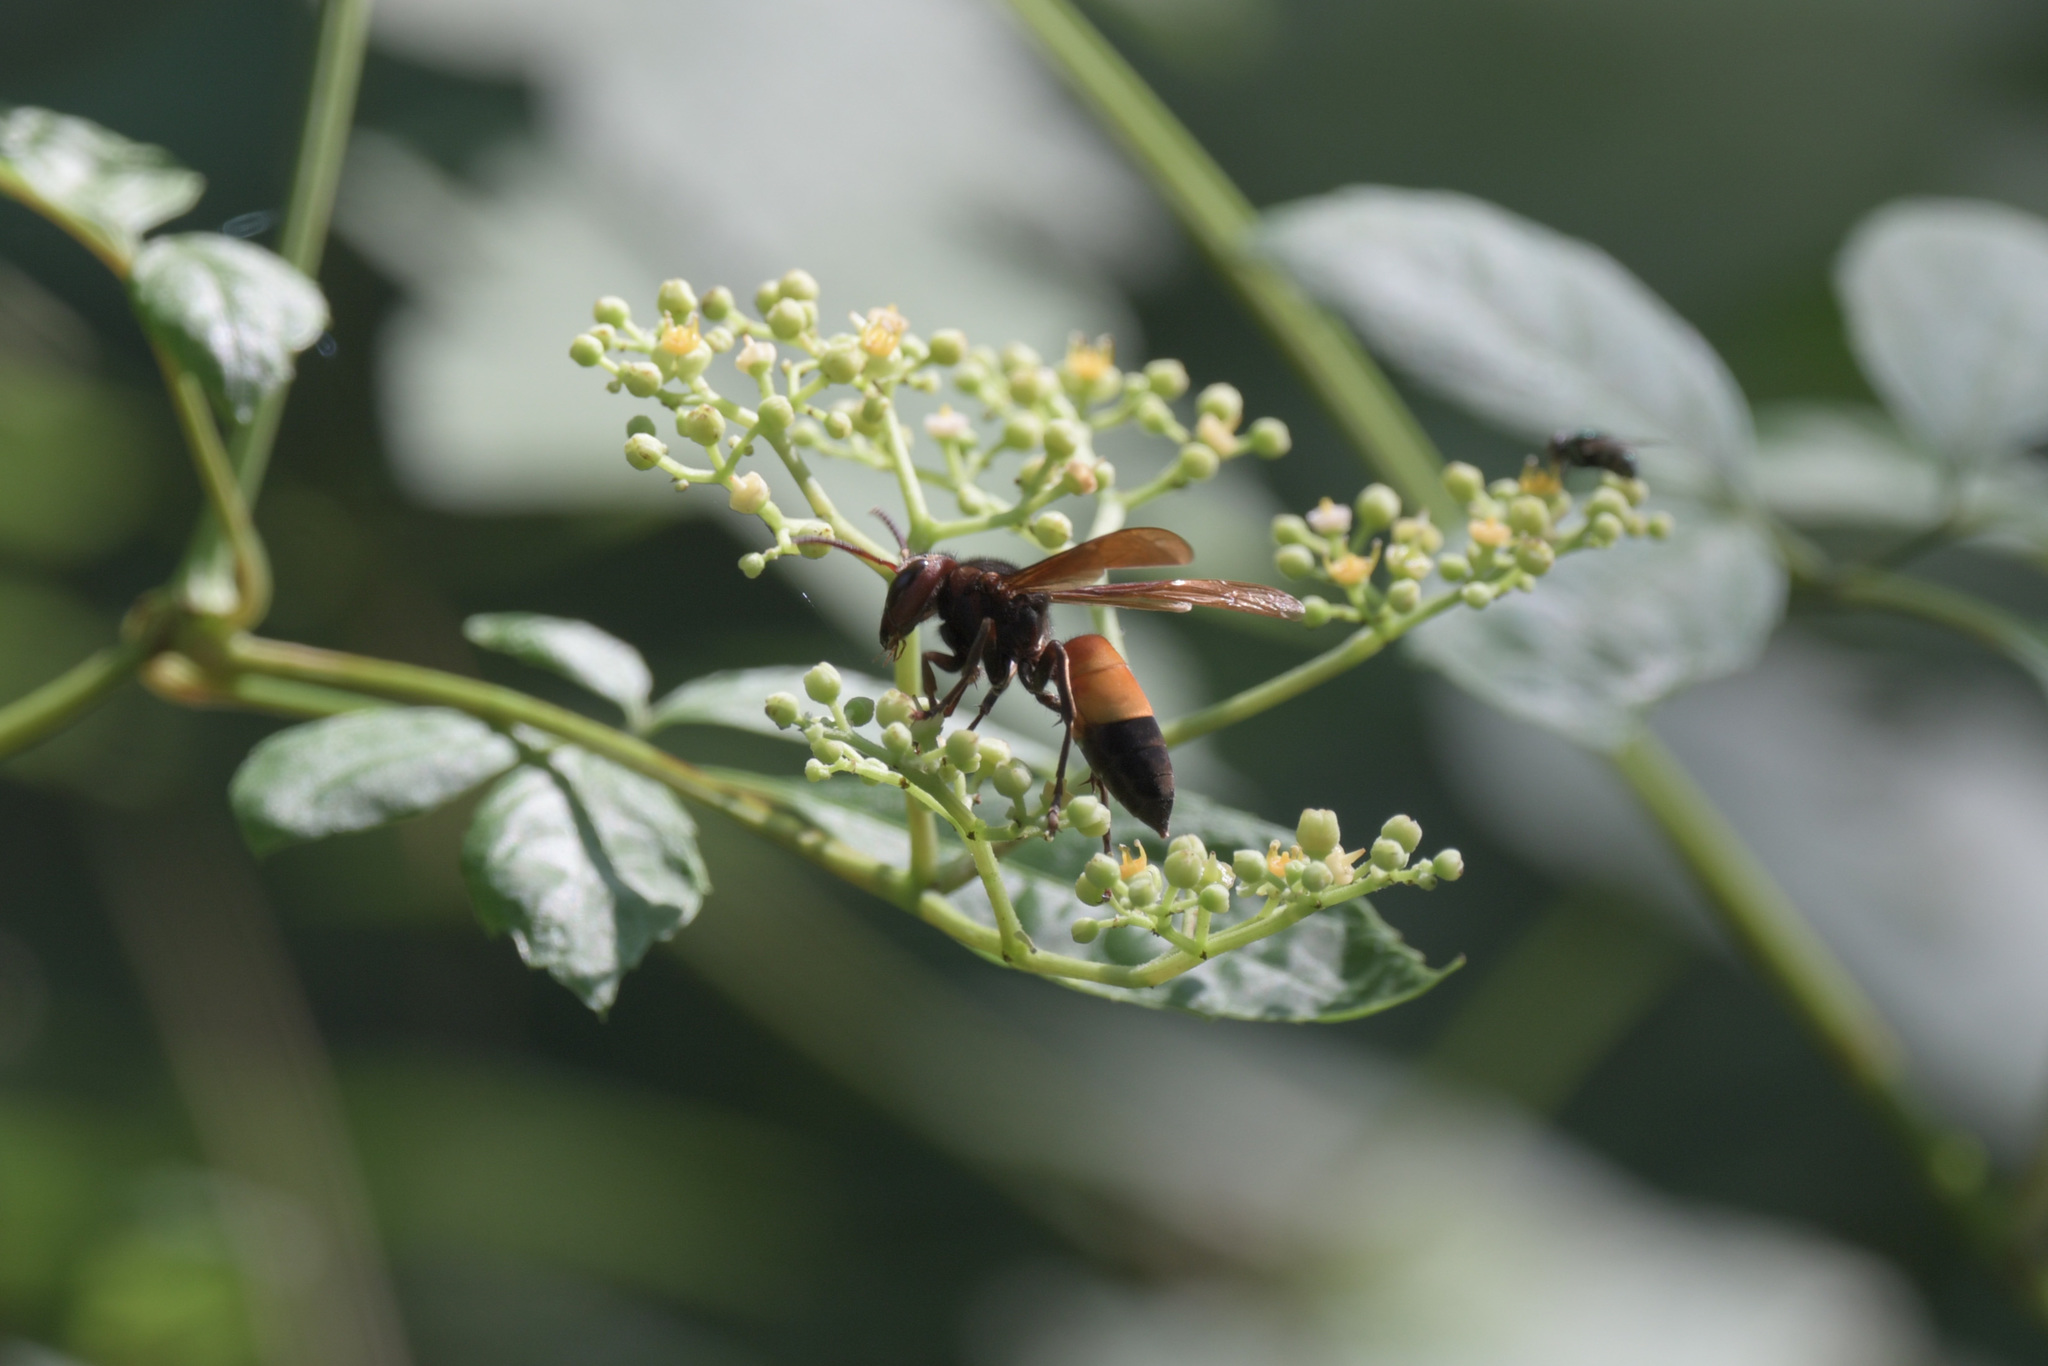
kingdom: Animalia
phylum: Arthropoda
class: Insecta
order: Hymenoptera
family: Vespidae
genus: Vespa
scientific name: Vespa affinis
